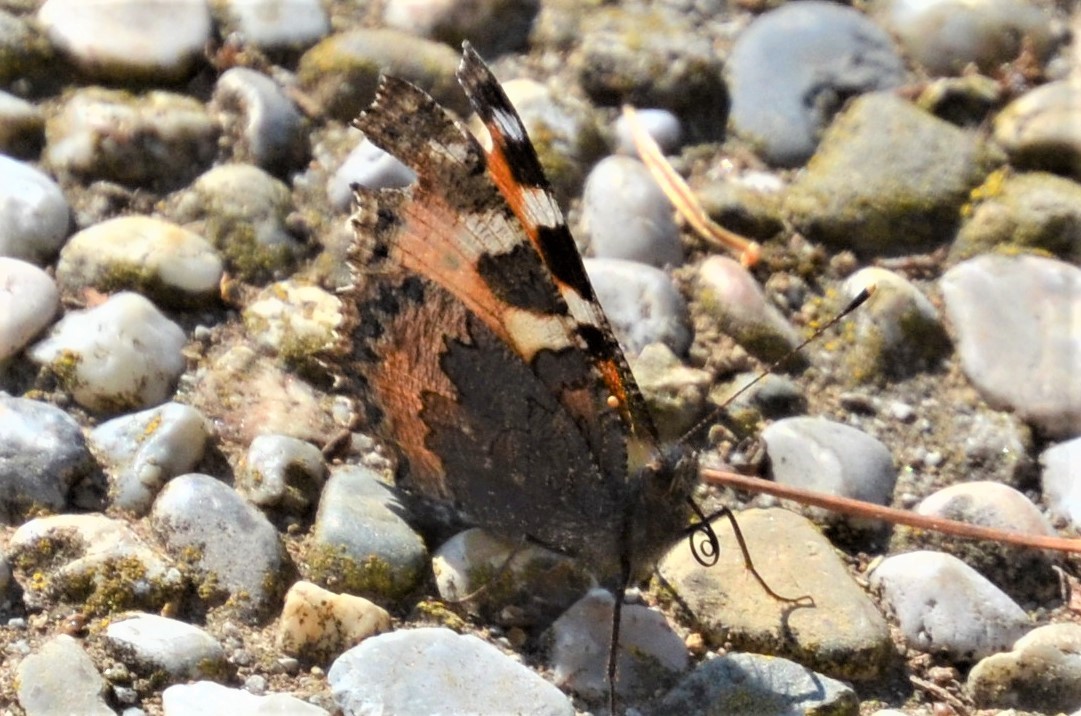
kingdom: Animalia
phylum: Arthropoda
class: Insecta
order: Lepidoptera
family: Nymphalidae
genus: Aglais
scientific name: Aglais urticae
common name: Small tortoiseshell
